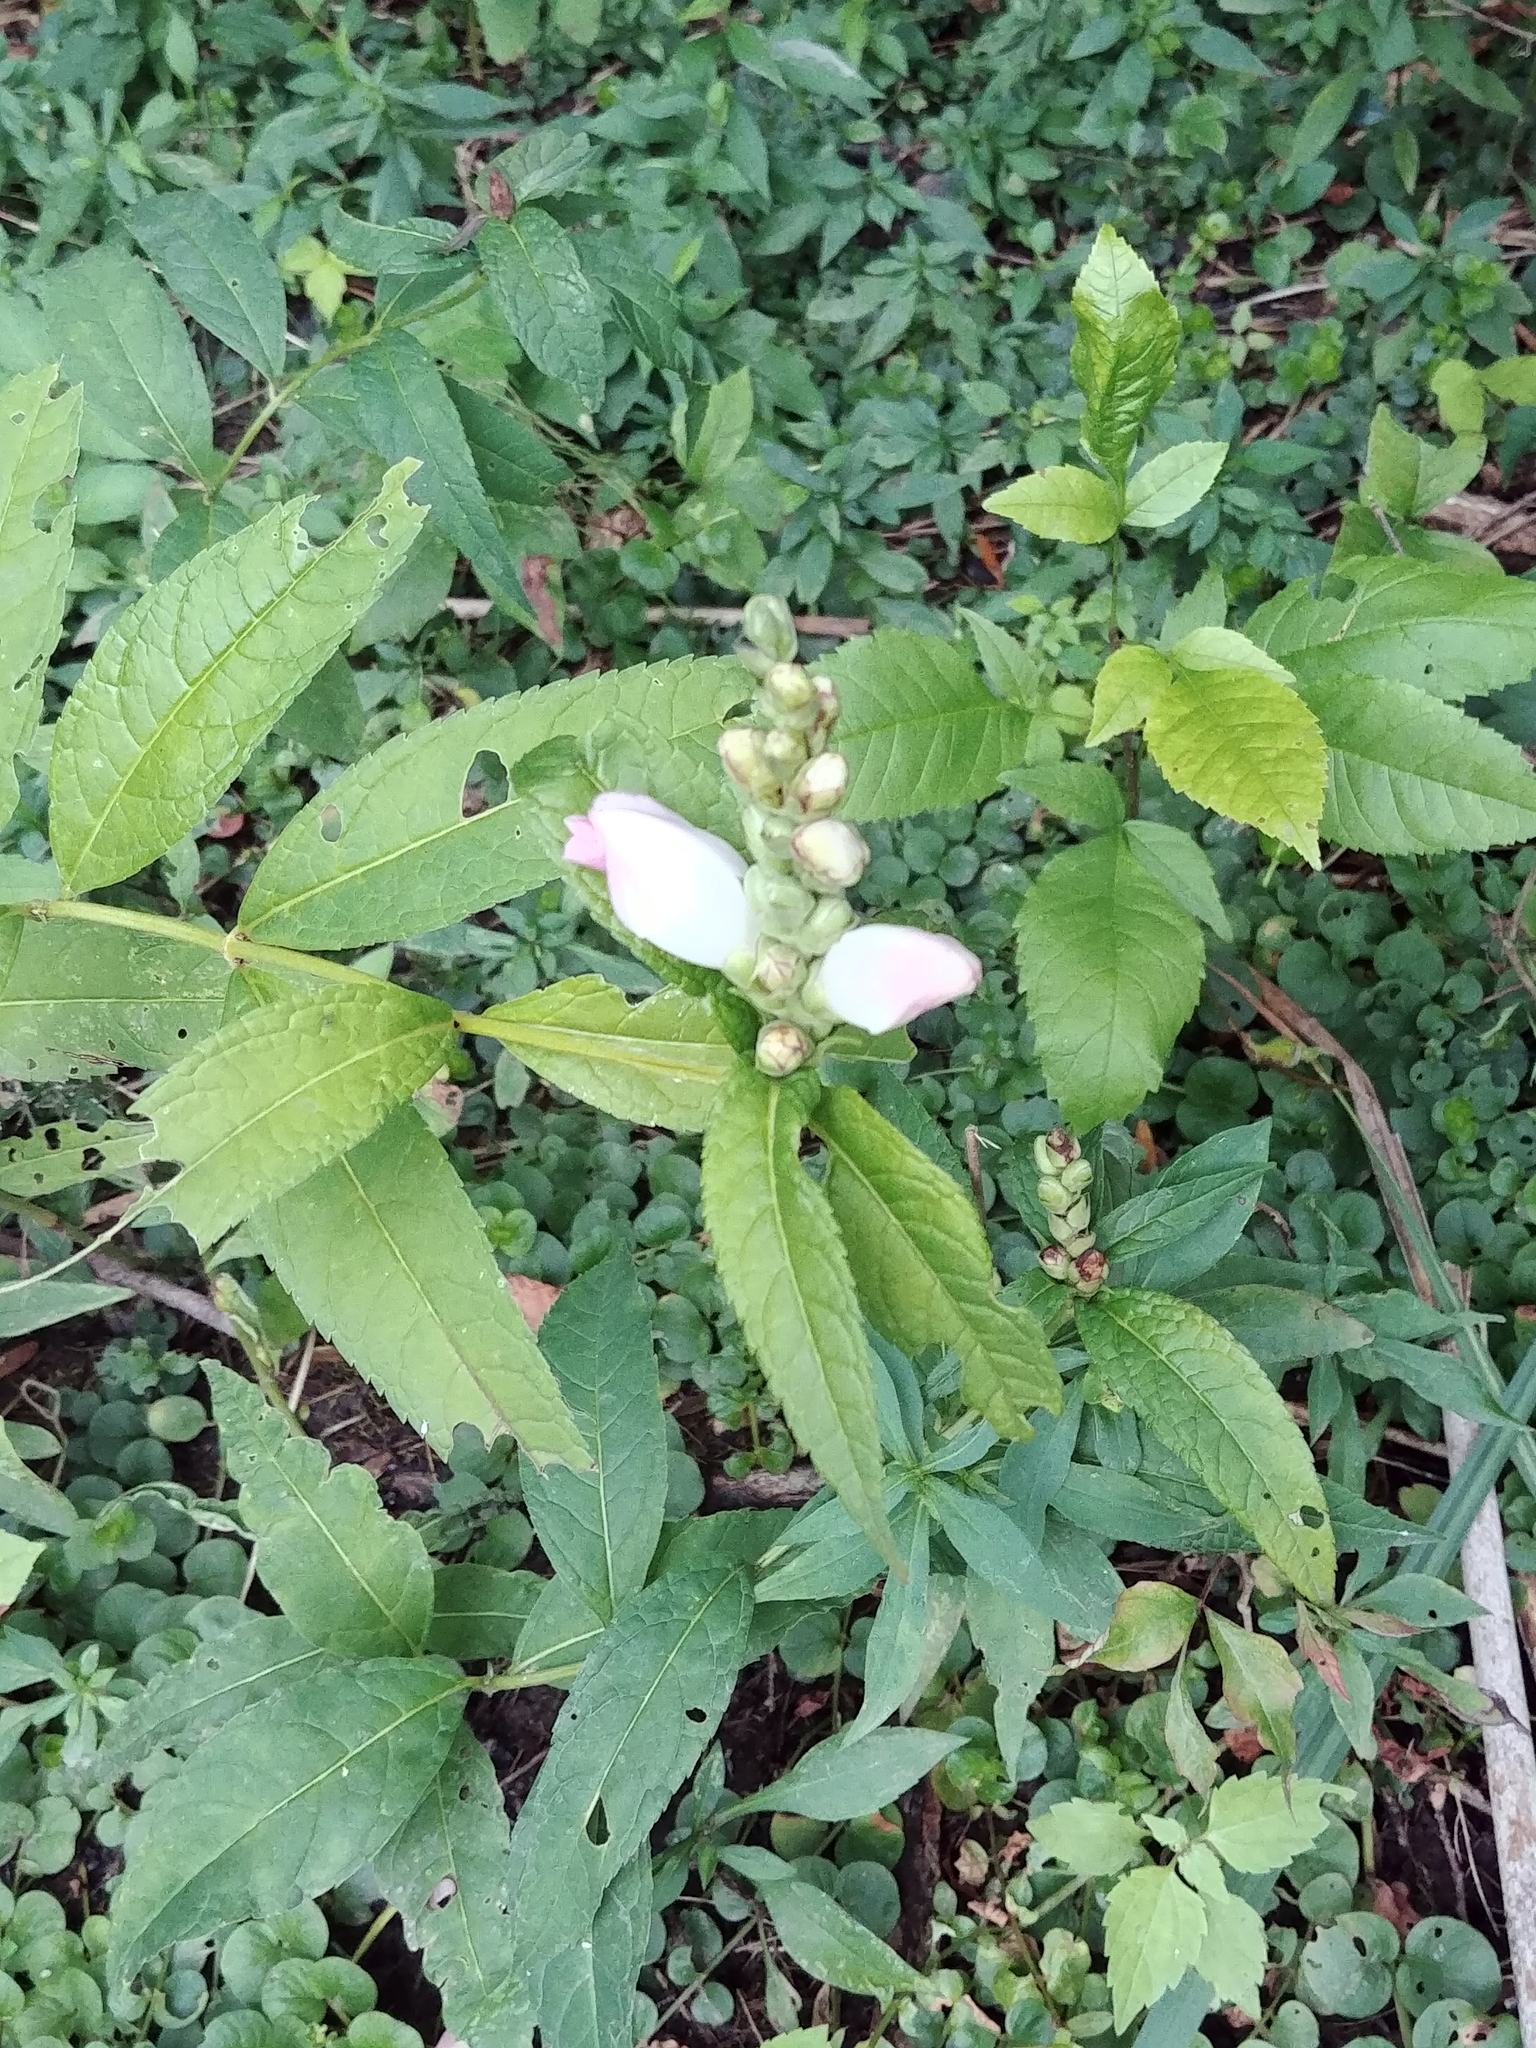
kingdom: Plantae
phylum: Tracheophyta
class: Magnoliopsida
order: Lamiales
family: Plantaginaceae
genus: Chelone
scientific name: Chelone glabra
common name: Snakehead
